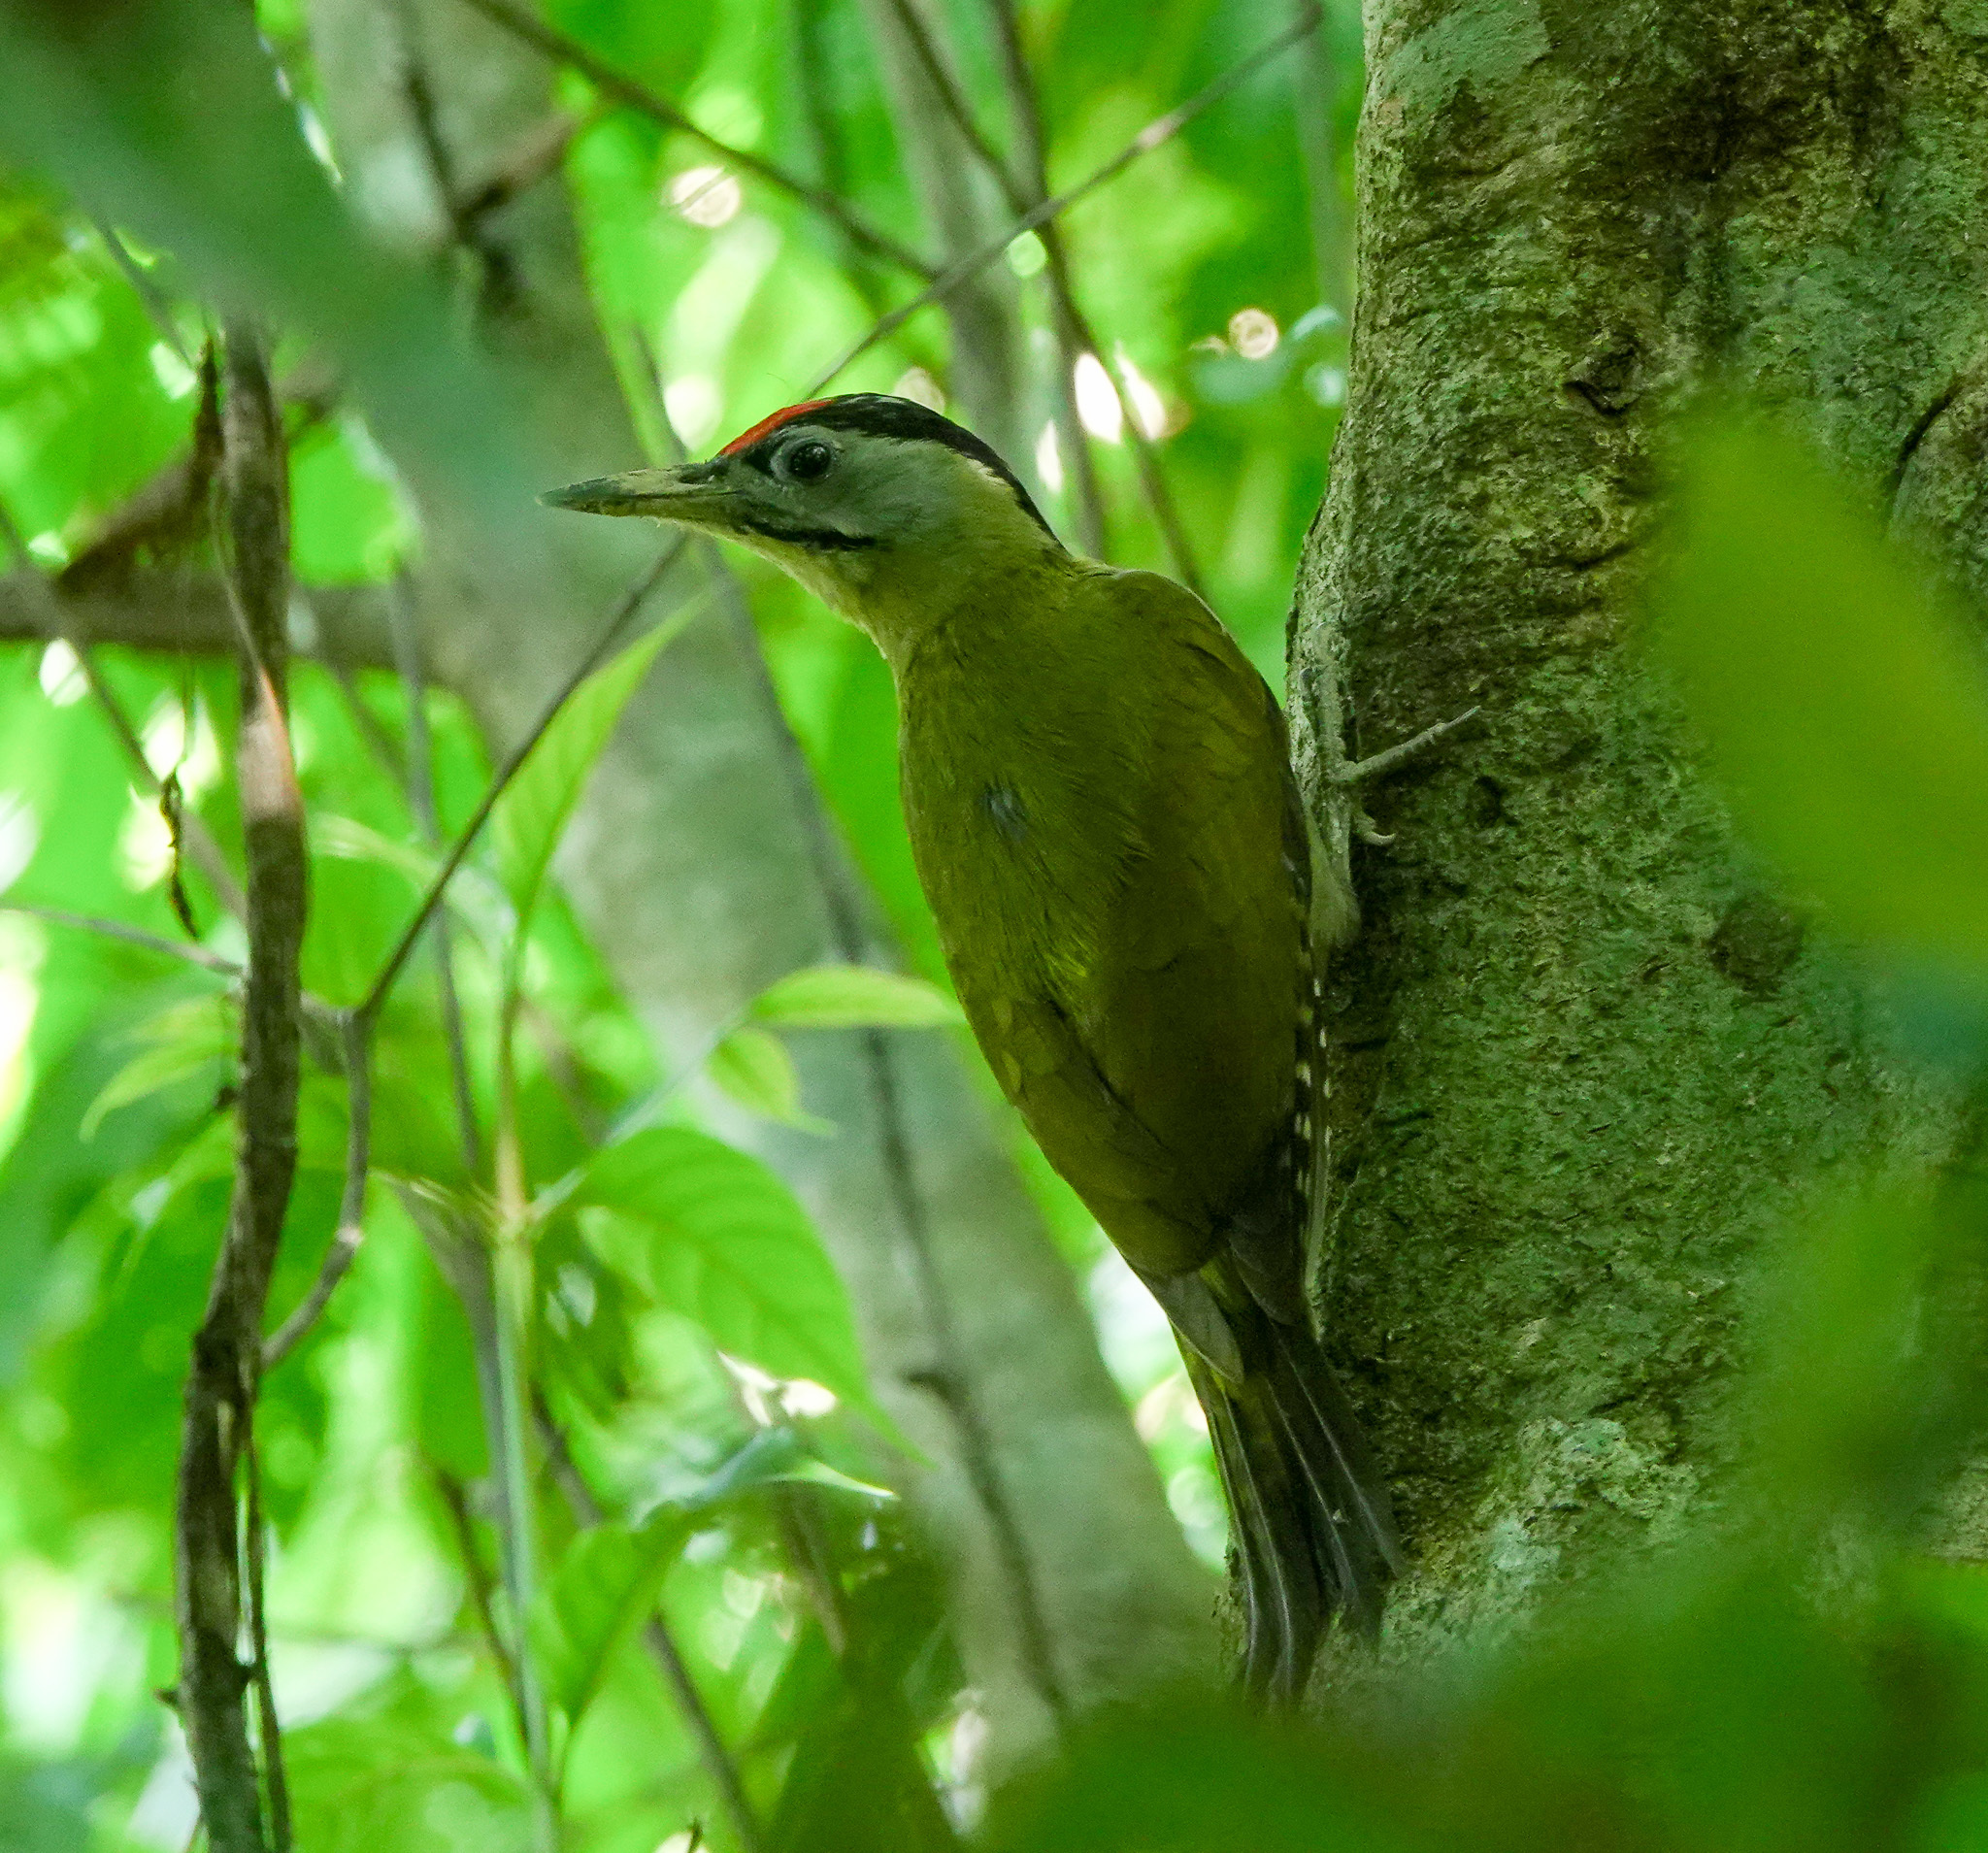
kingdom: Animalia
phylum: Chordata
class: Aves
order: Piciformes
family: Picidae
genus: Picus
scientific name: Picus canus
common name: Grey-headed woodpecker
